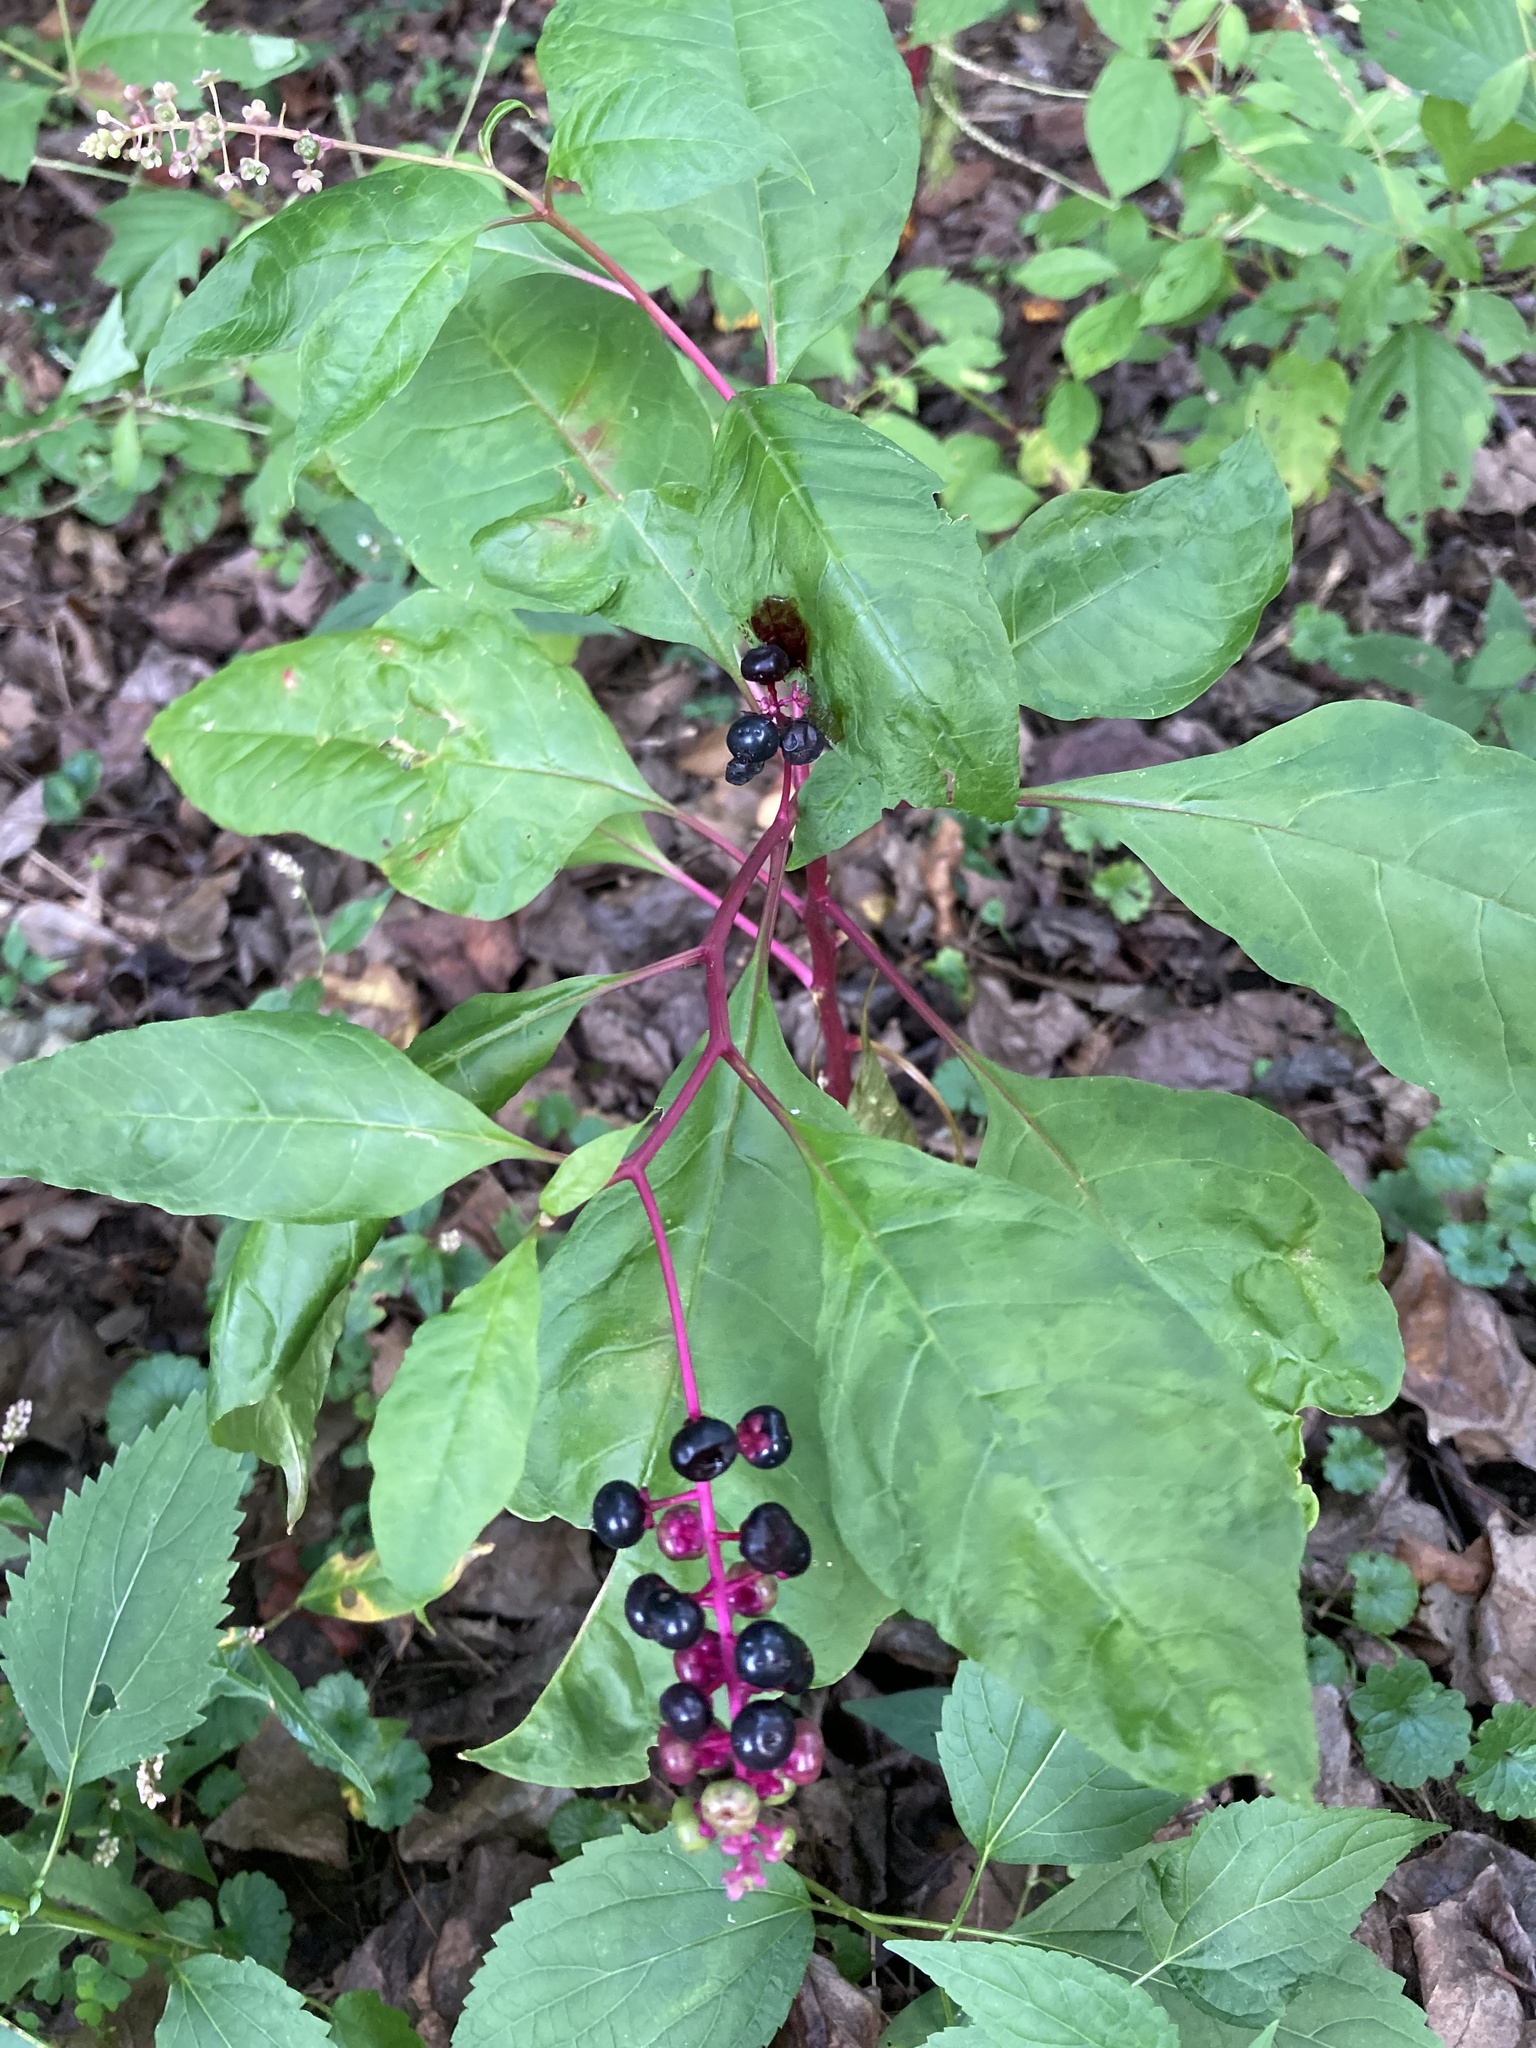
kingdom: Plantae
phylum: Tracheophyta
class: Magnoliopsida
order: Caryophyllales
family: Phytolaccaceae
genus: Phytolacca
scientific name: Phytolacca americana
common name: American pokeweed
